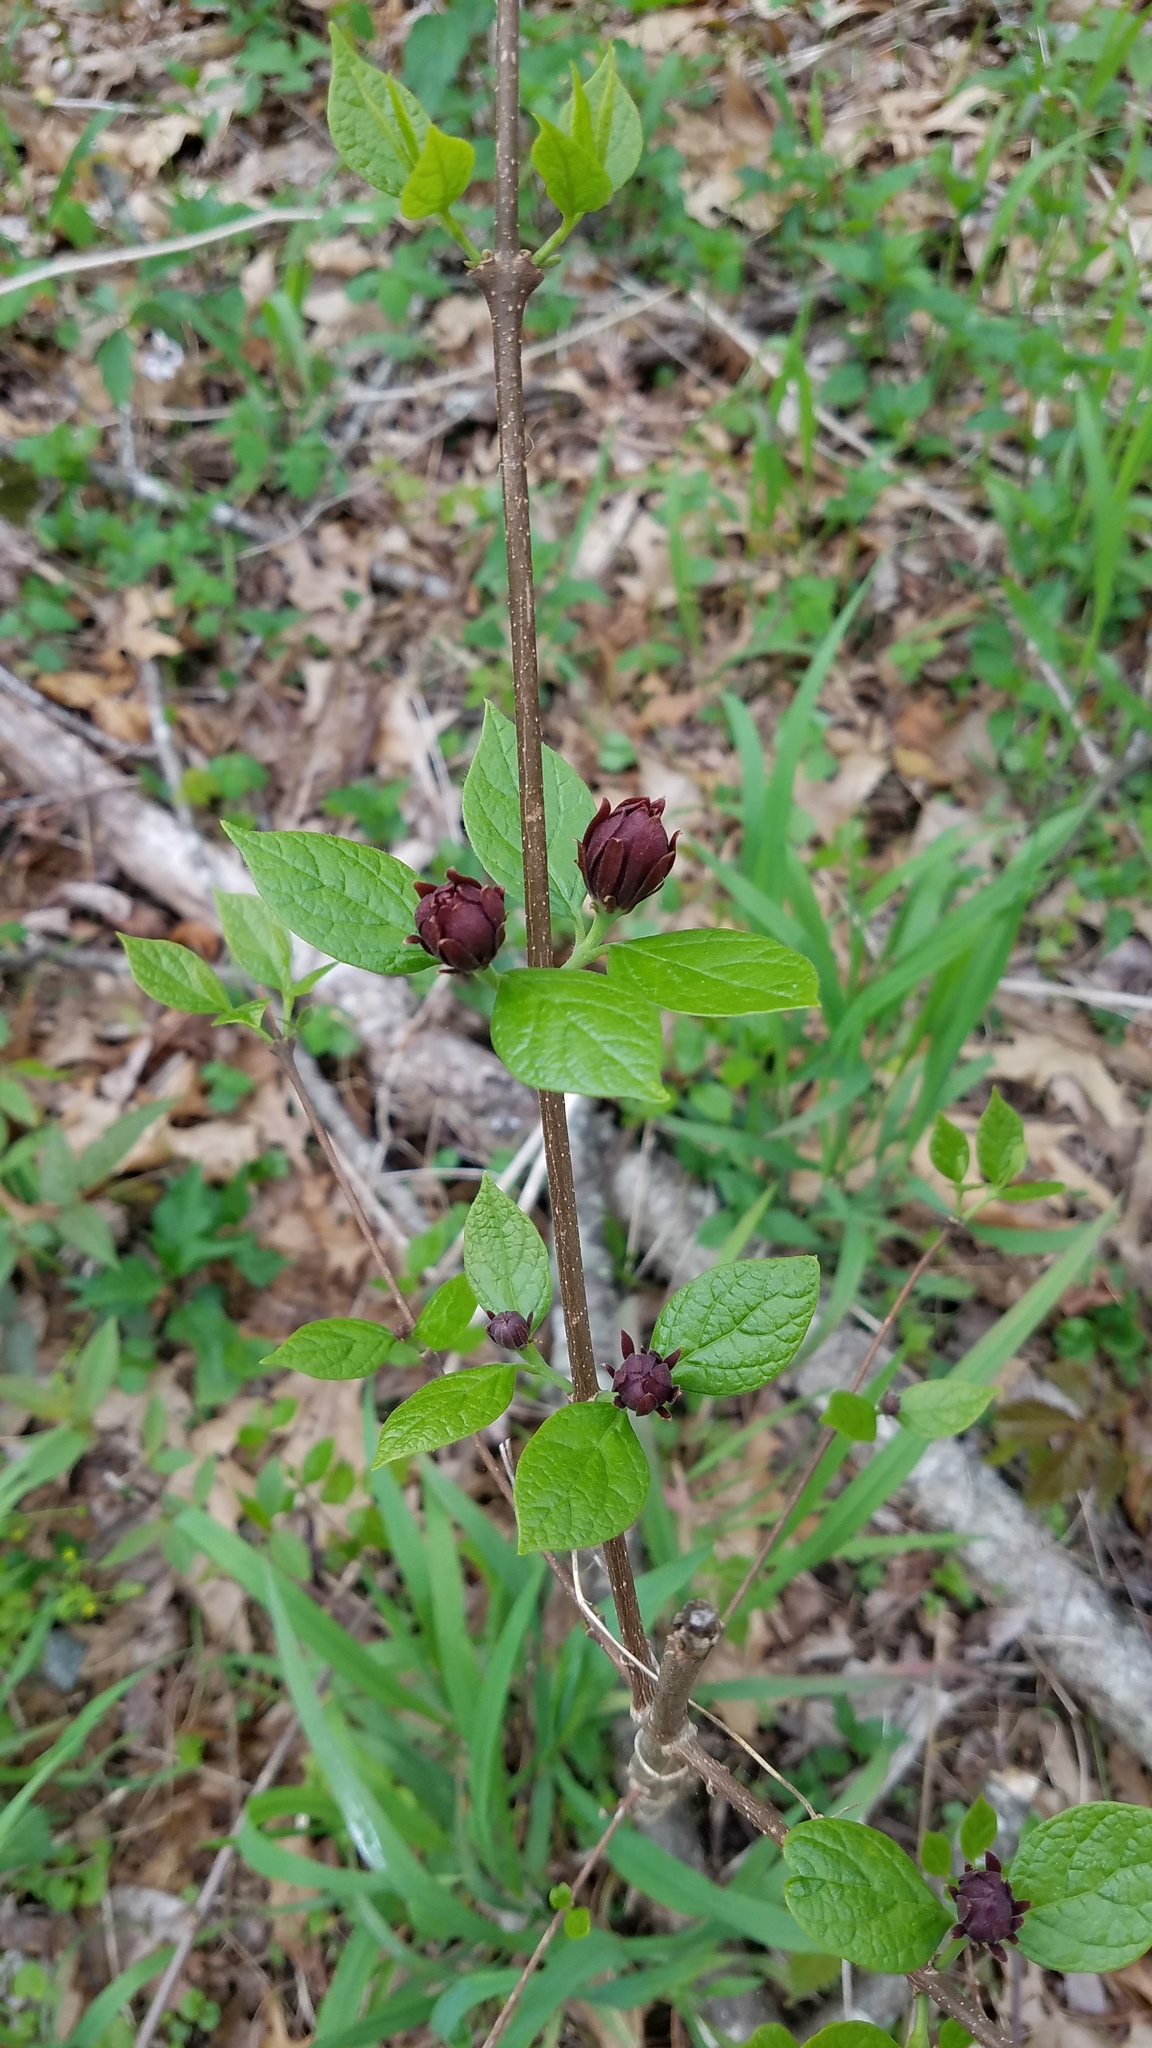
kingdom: Plantae
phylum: Tracheophyta
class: Magnoliopsida
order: Laurales
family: Calycanthaceae
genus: Calycanthus
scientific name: Calycanthus floridus
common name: Carolina-allspice
